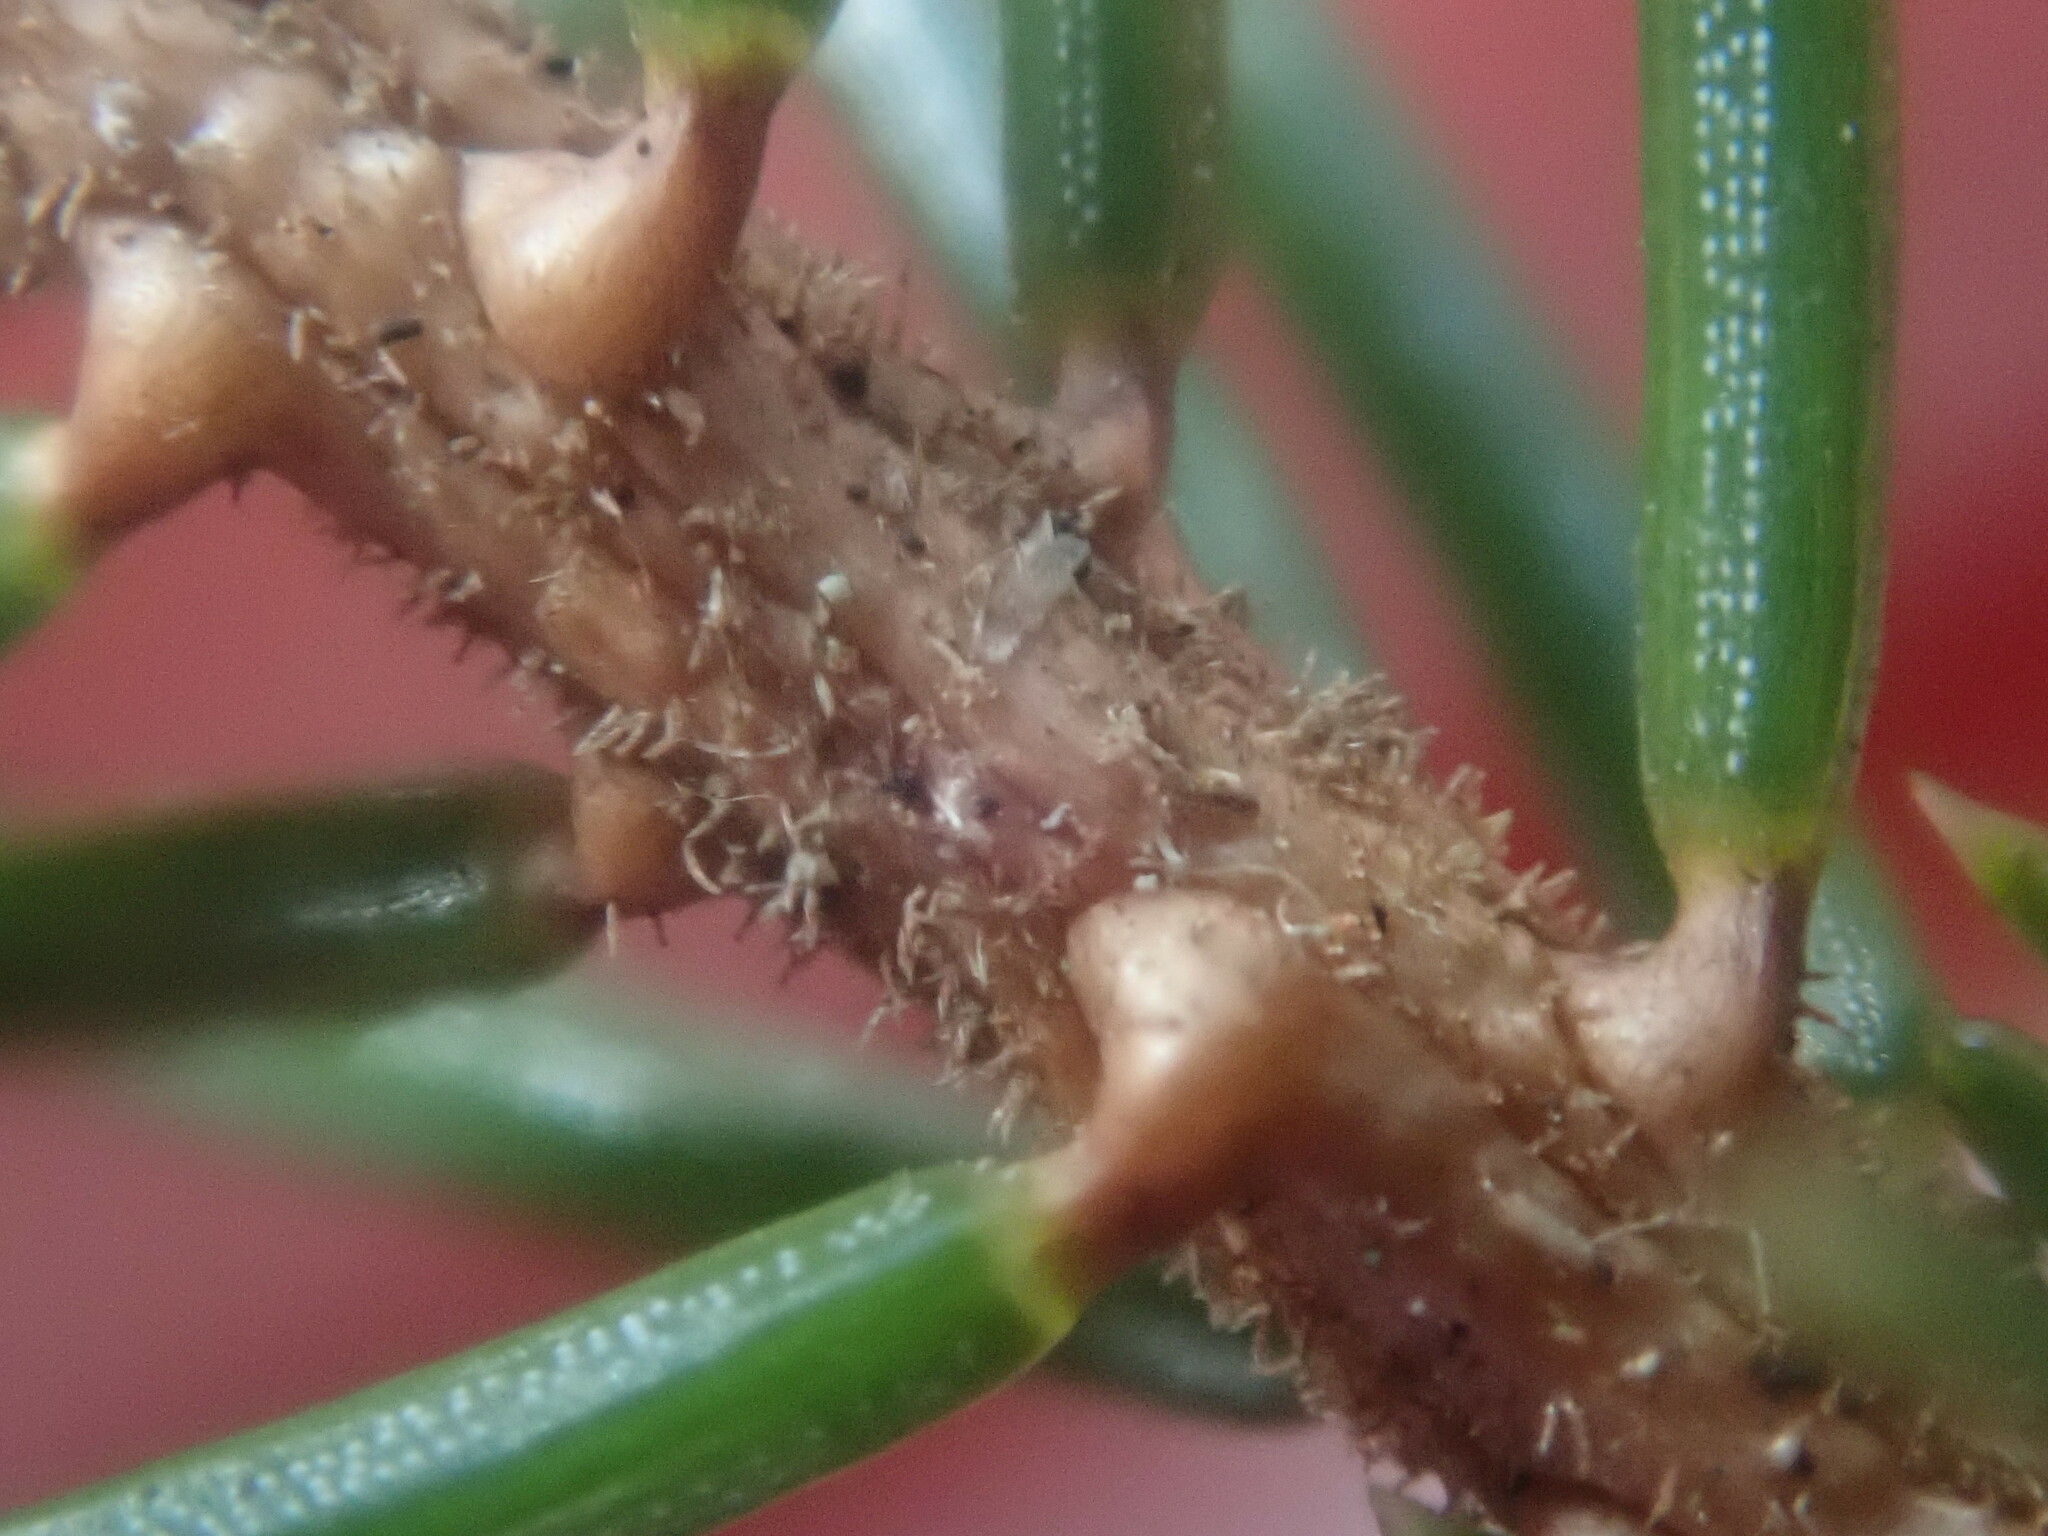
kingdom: Plantae
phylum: Tracheophyta
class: Pinopsida
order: Pinales
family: Pinaceae
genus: Picea
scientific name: Picea rubens
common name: Red spruce
